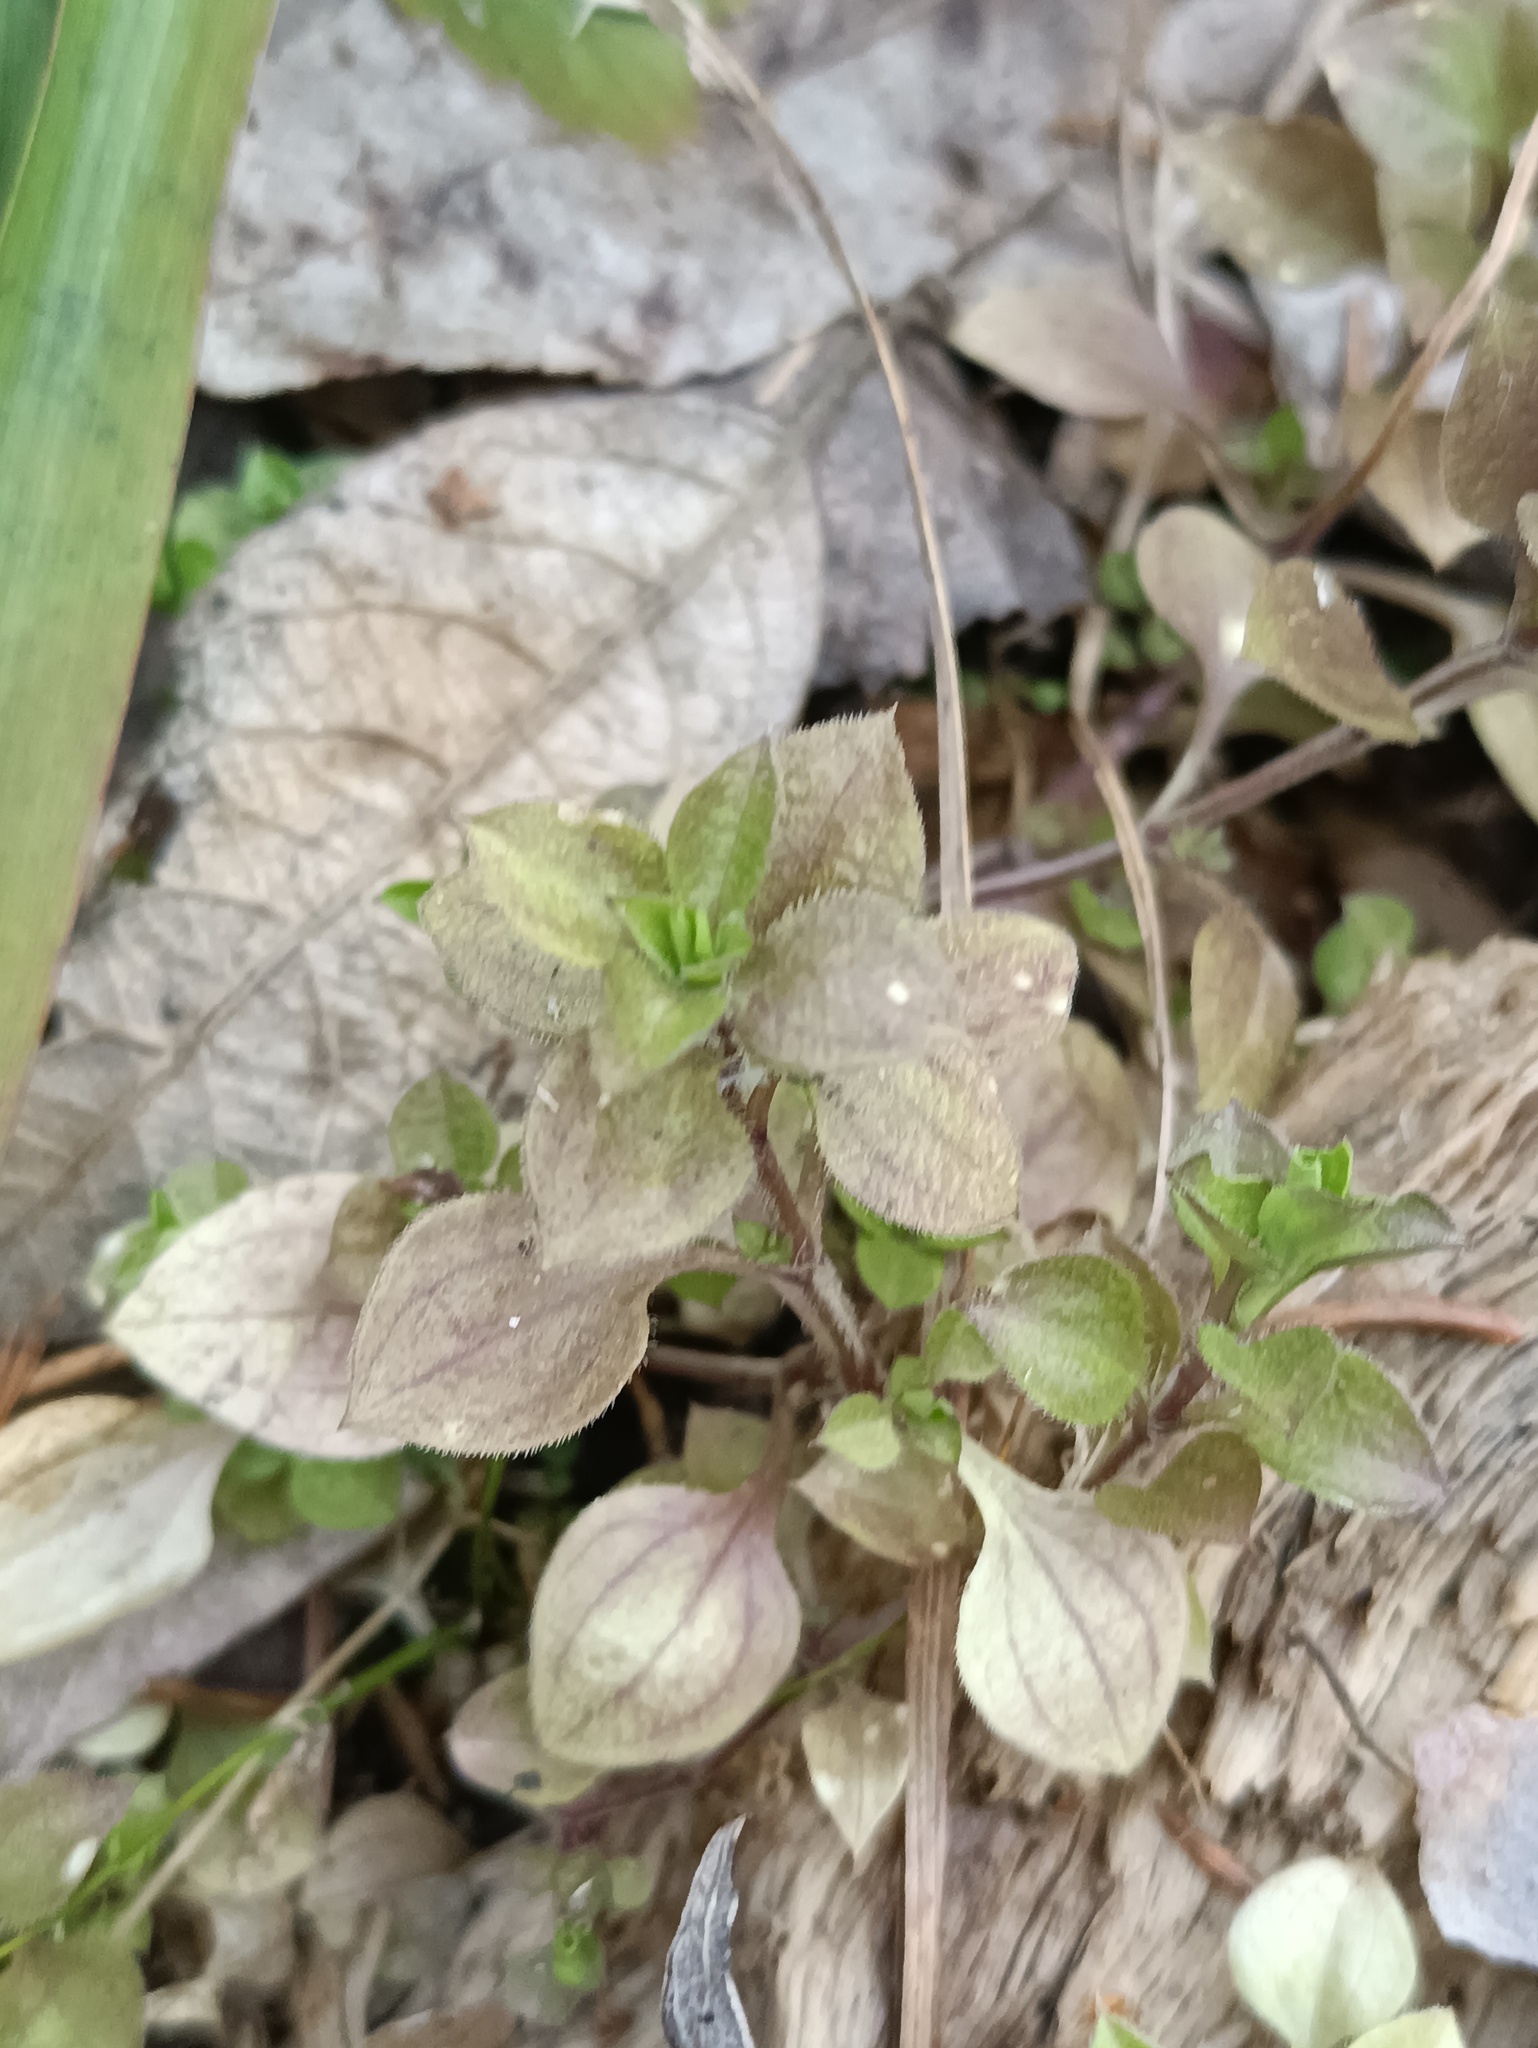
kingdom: Plantae
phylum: Tracheophyta
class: Magnoliopsida
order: Caryophyllales
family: Caryophyllaceae
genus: Moehringia
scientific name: Moehringia trinervia
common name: Three-nerved sandwort
